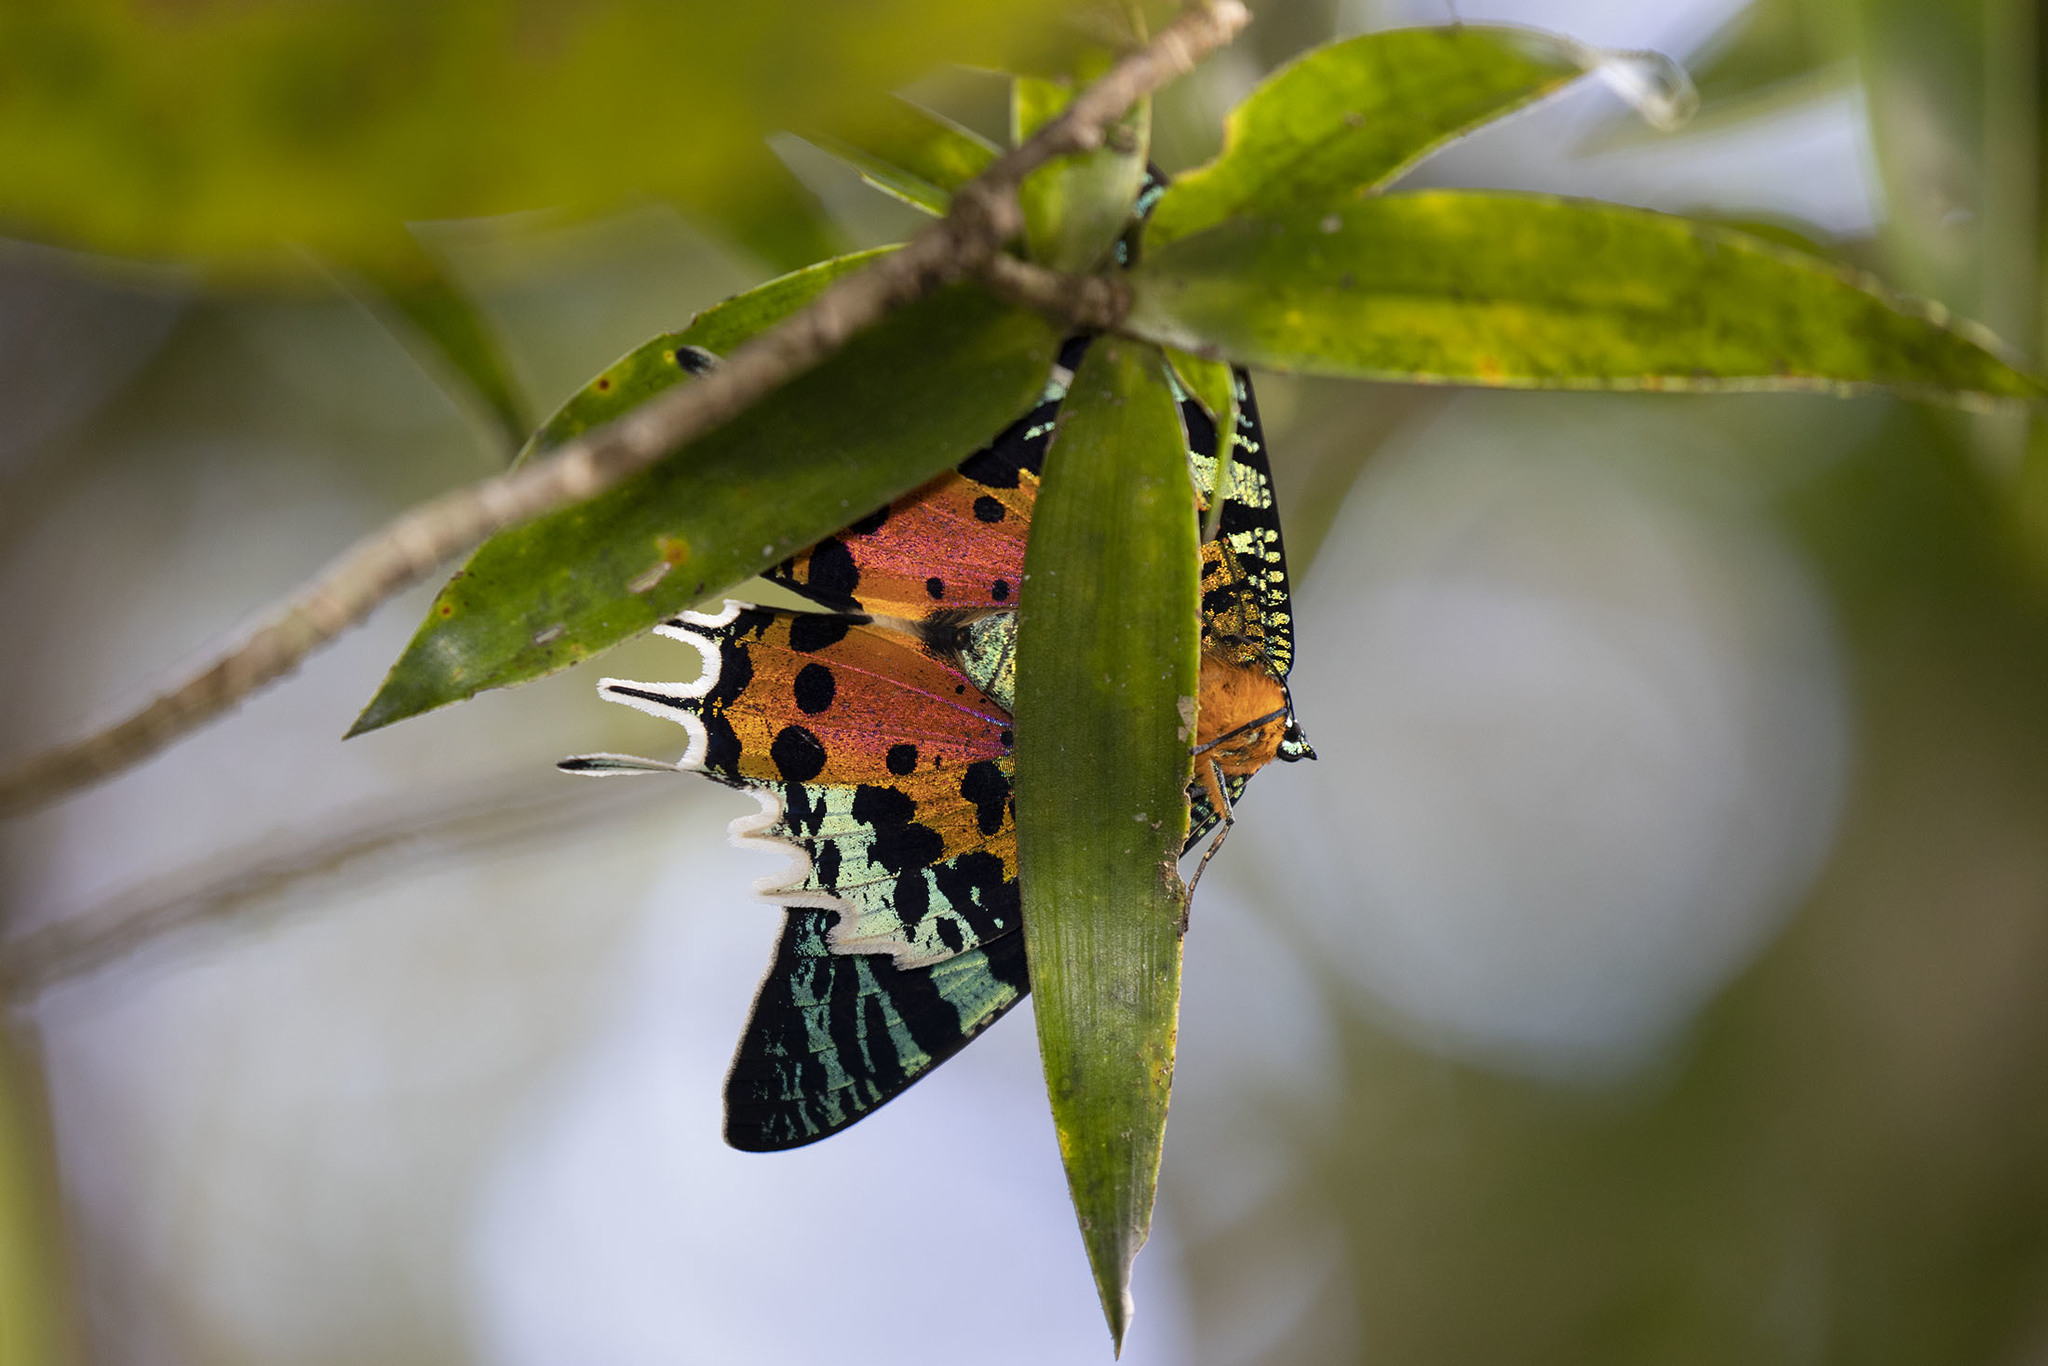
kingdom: Animalia
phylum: Arthropoda
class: Insecta
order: Lepidoptera
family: Uraniidae
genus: Chrysiridia
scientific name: Chrysiridia rhipheus
